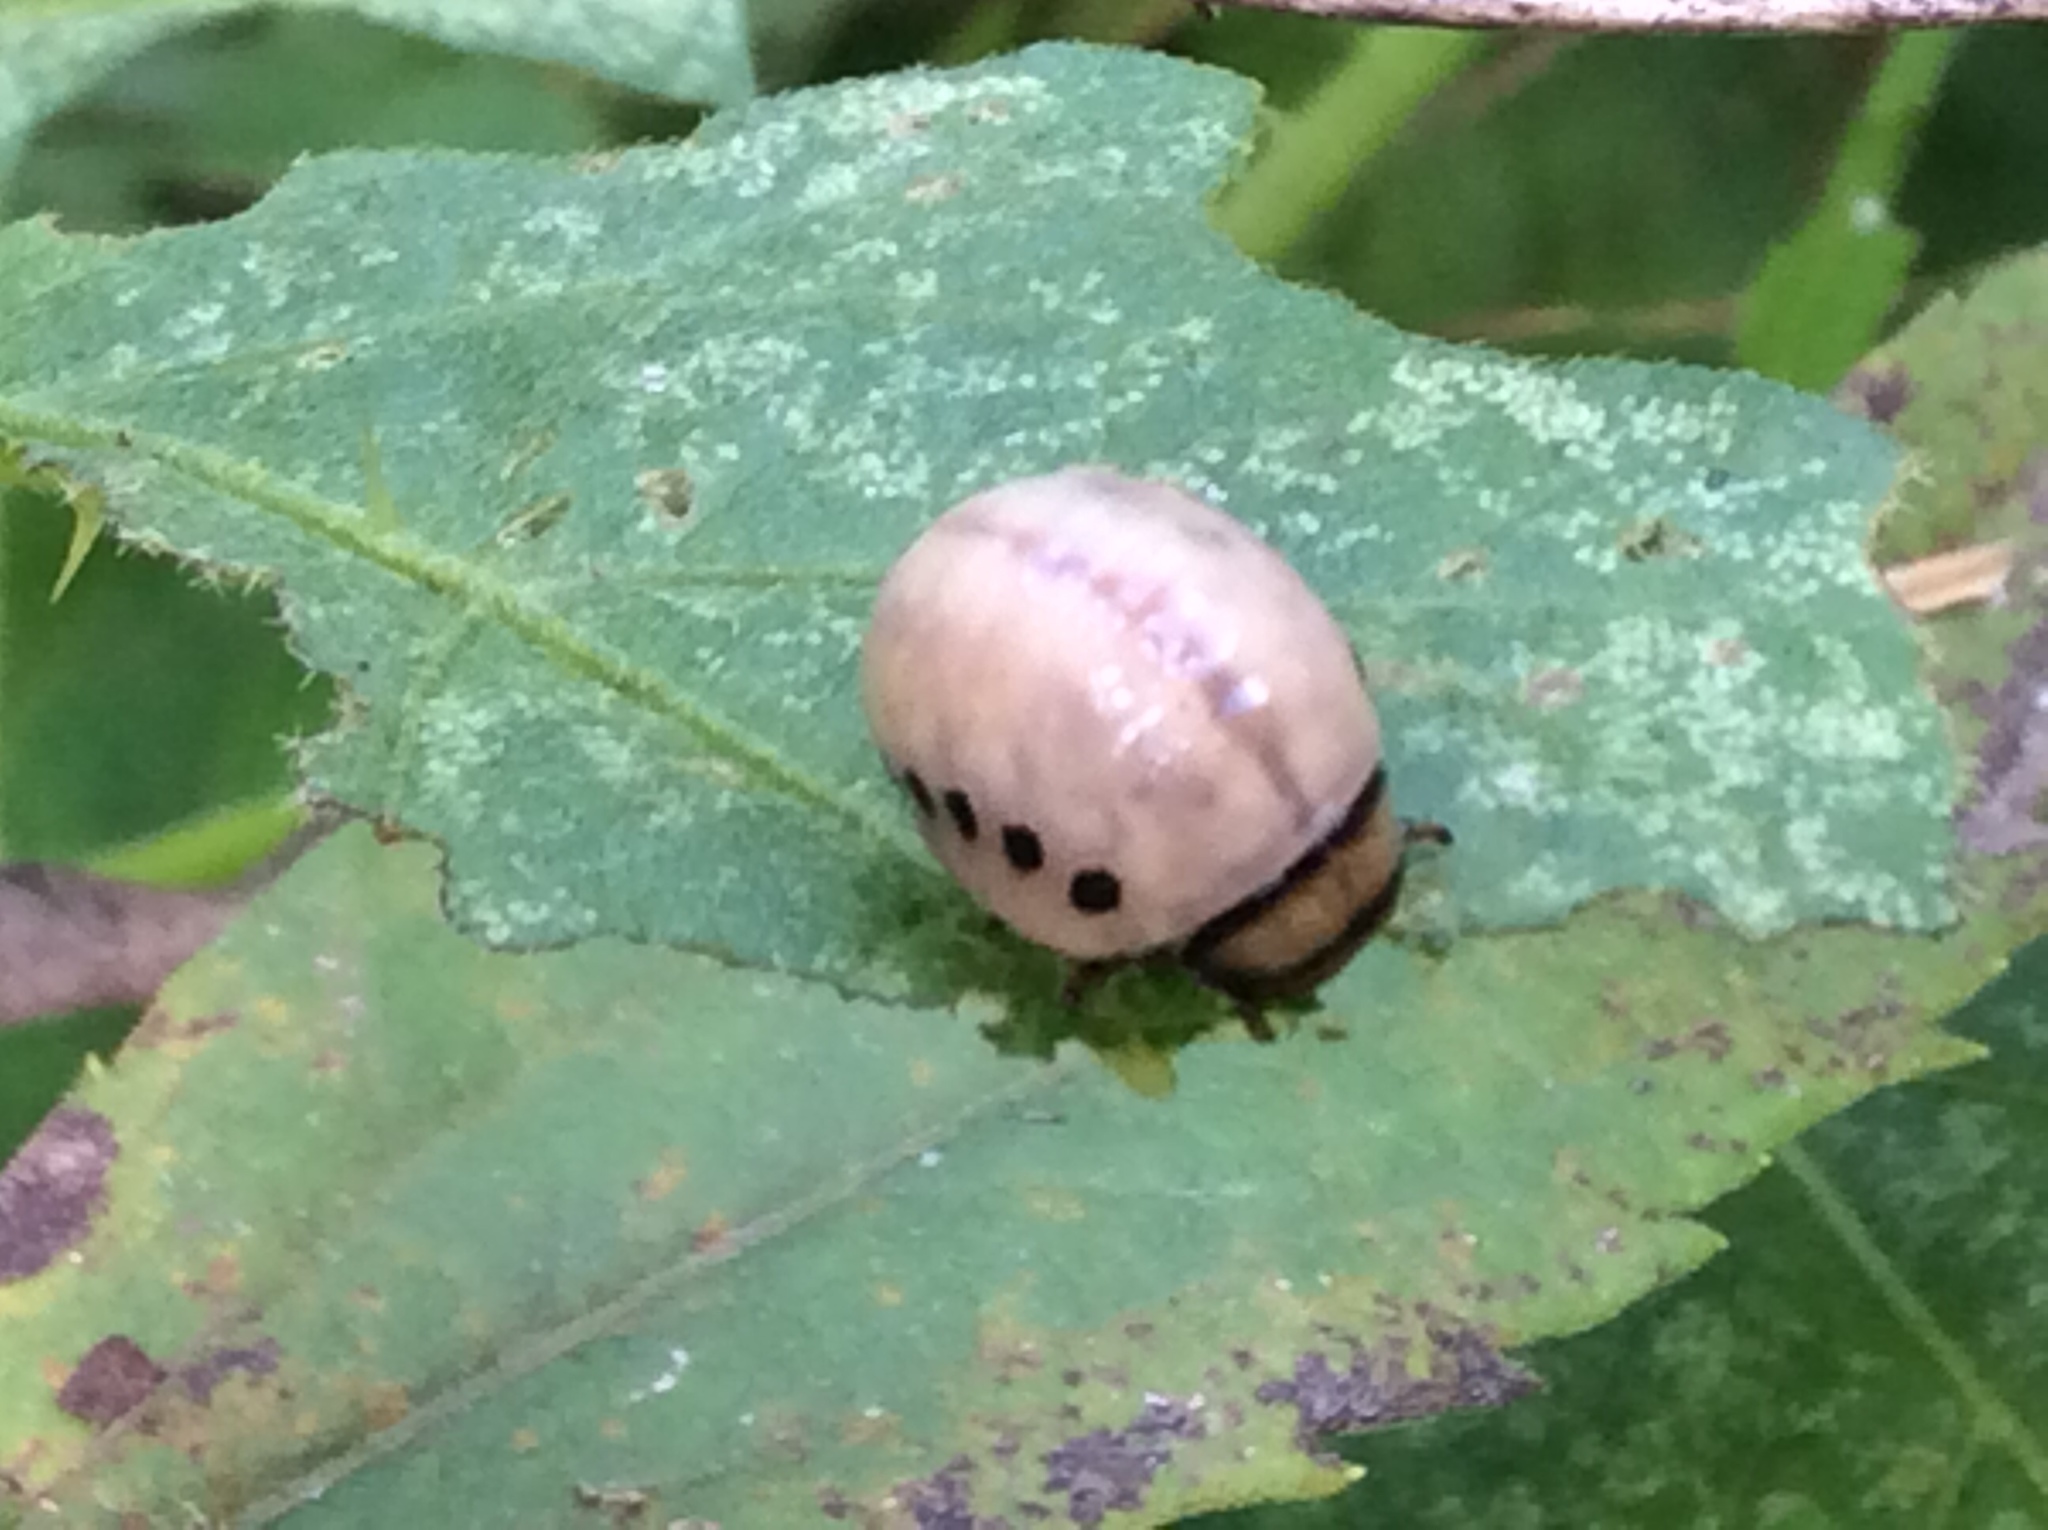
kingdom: Animalia
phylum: Arthropoda
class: Insecta
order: Coleoptera
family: Chrysomelidae
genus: Leptinotarsa
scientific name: Leptinotarsa juncta
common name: False potato beetle
